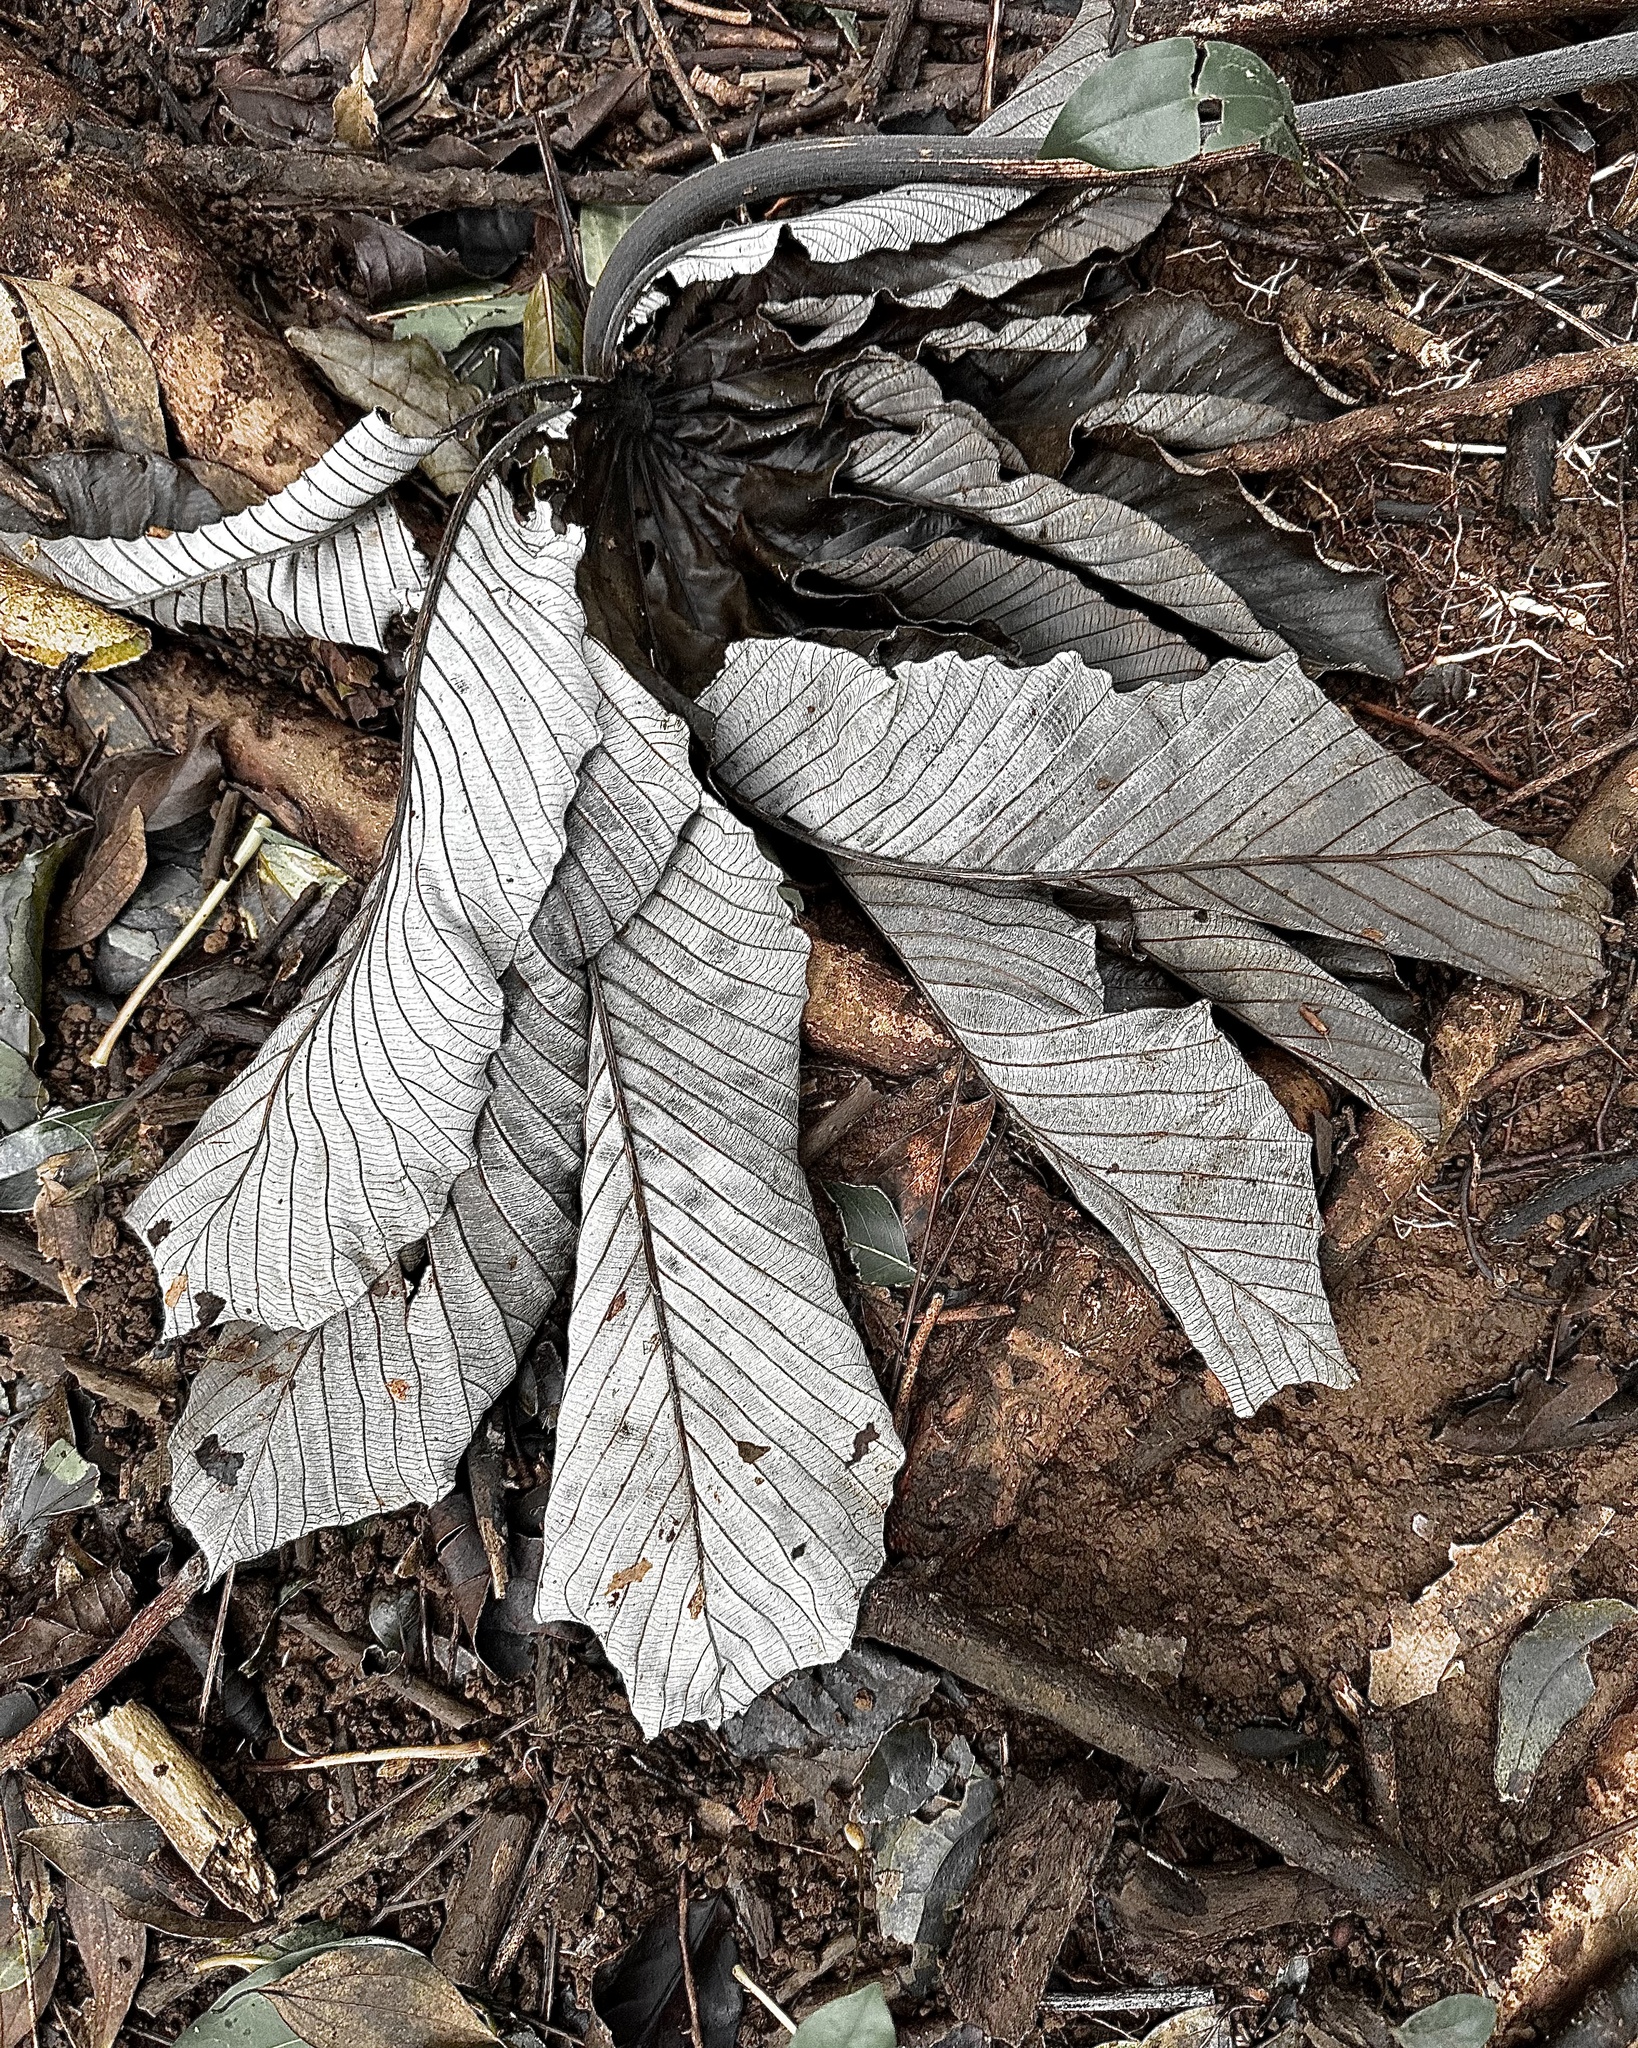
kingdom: Plantae
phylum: Tracheophyta
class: Magnoliopsida
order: Rosales
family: Urticaceae
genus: Cecropia
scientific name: Cecropia obtusifolia
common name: Trumpet tree
